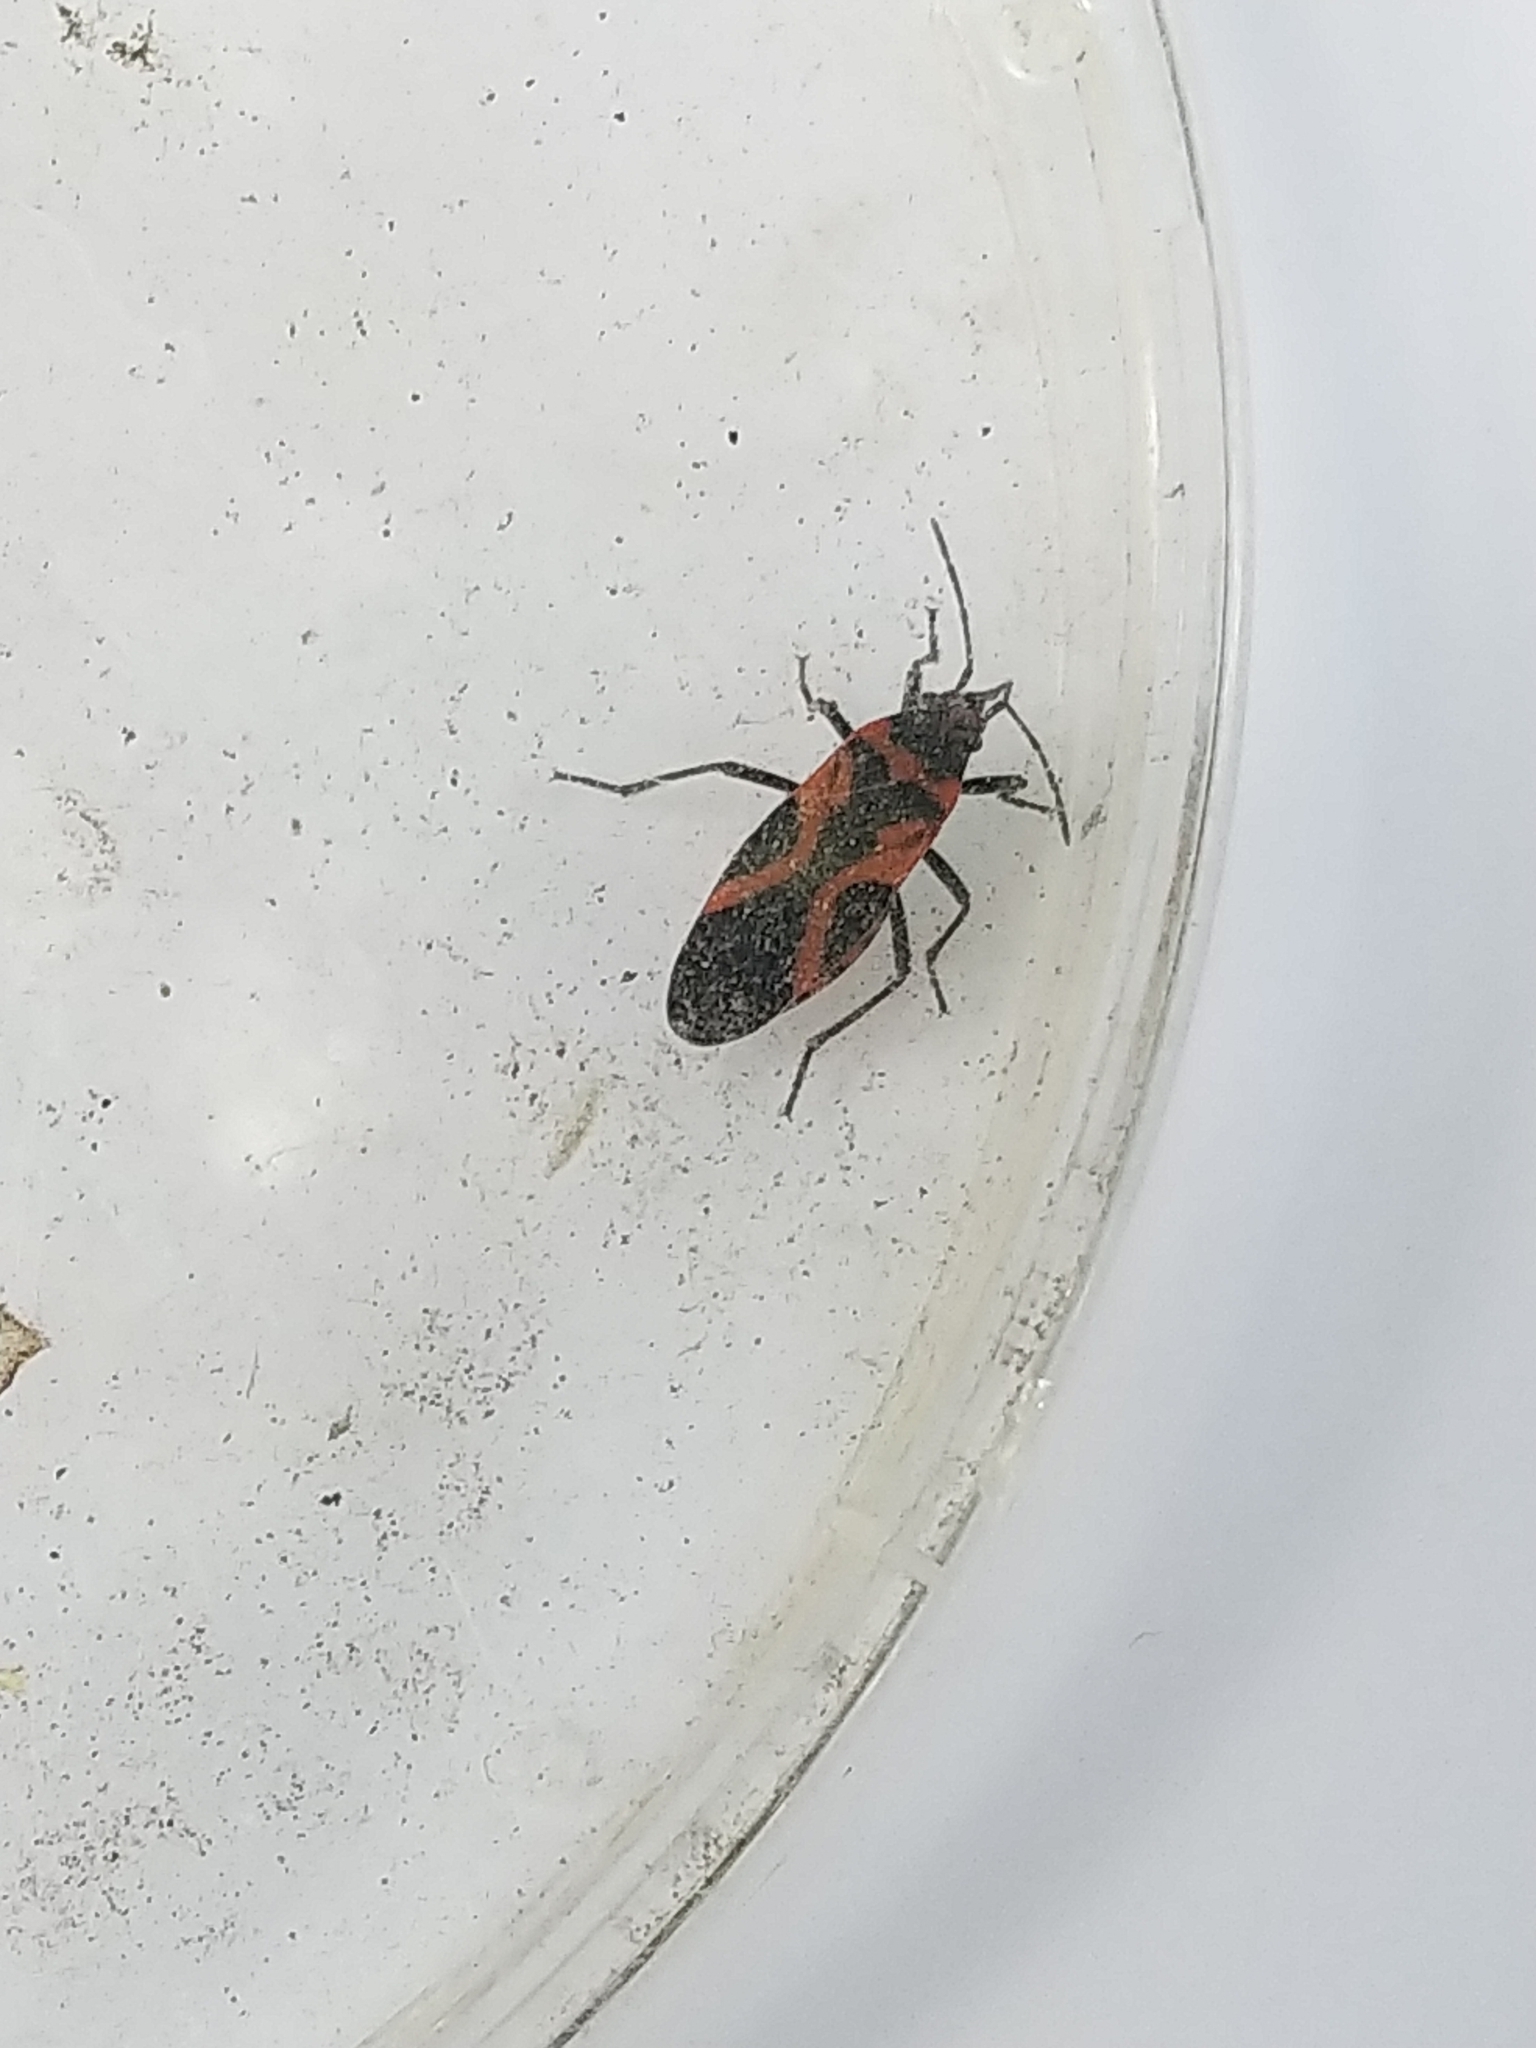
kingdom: Animalia
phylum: Arthropoda
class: Insecta
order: Hemiptera
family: Lygaeidae
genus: Lygaeus
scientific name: Lygaeus turcicus
